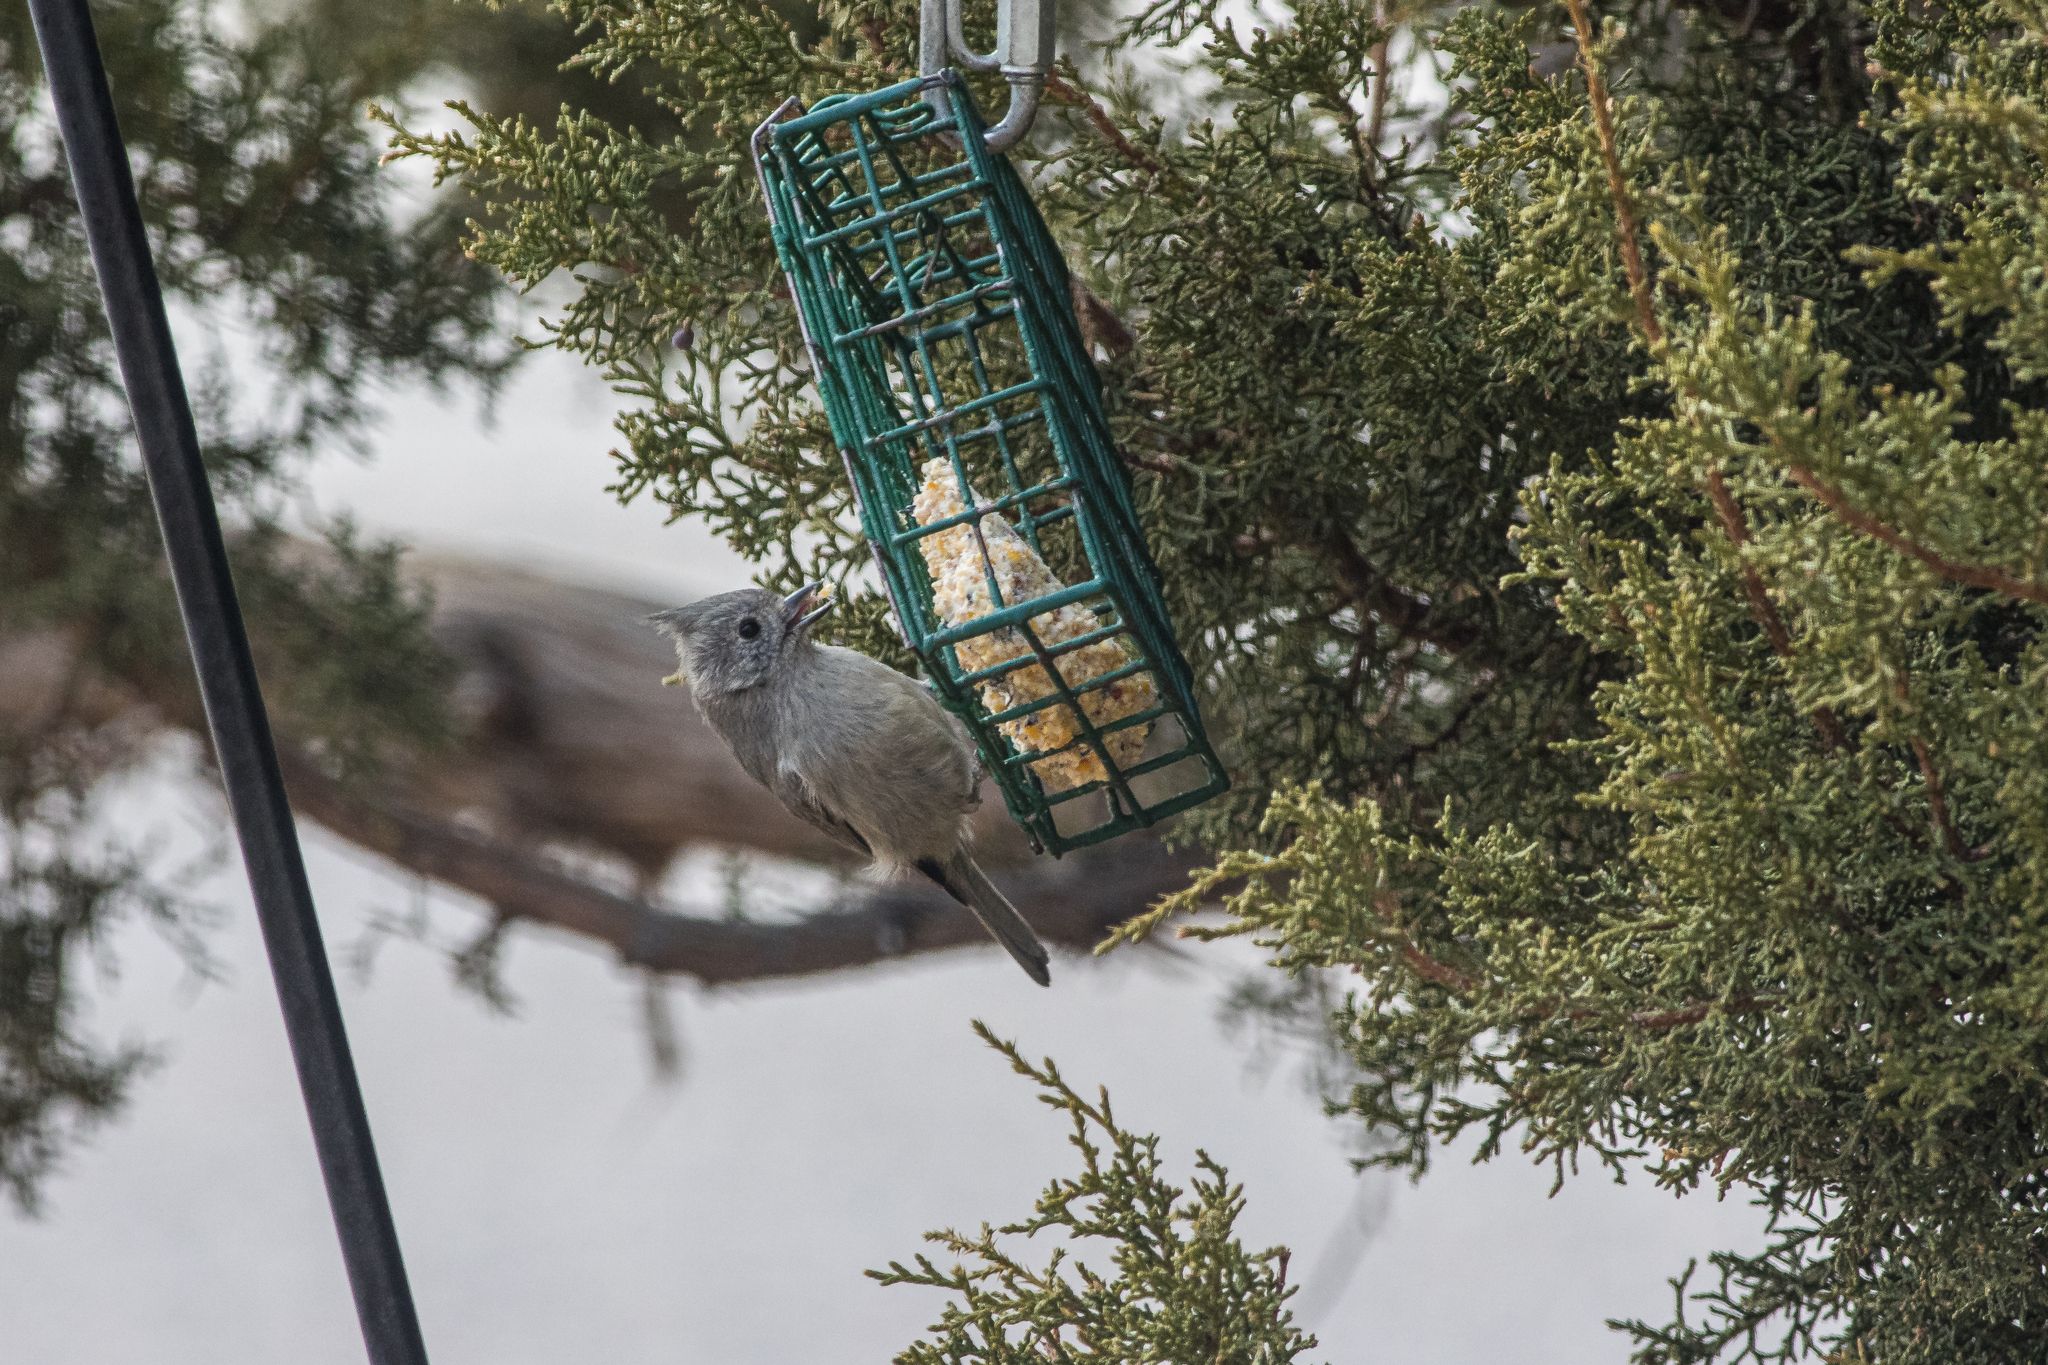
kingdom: Animalia
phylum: Chordata
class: Aves
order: Passeriformes
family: Paridae
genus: Baeolophus
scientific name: Baeolophus ridgwayi
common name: Juniper titmouse
